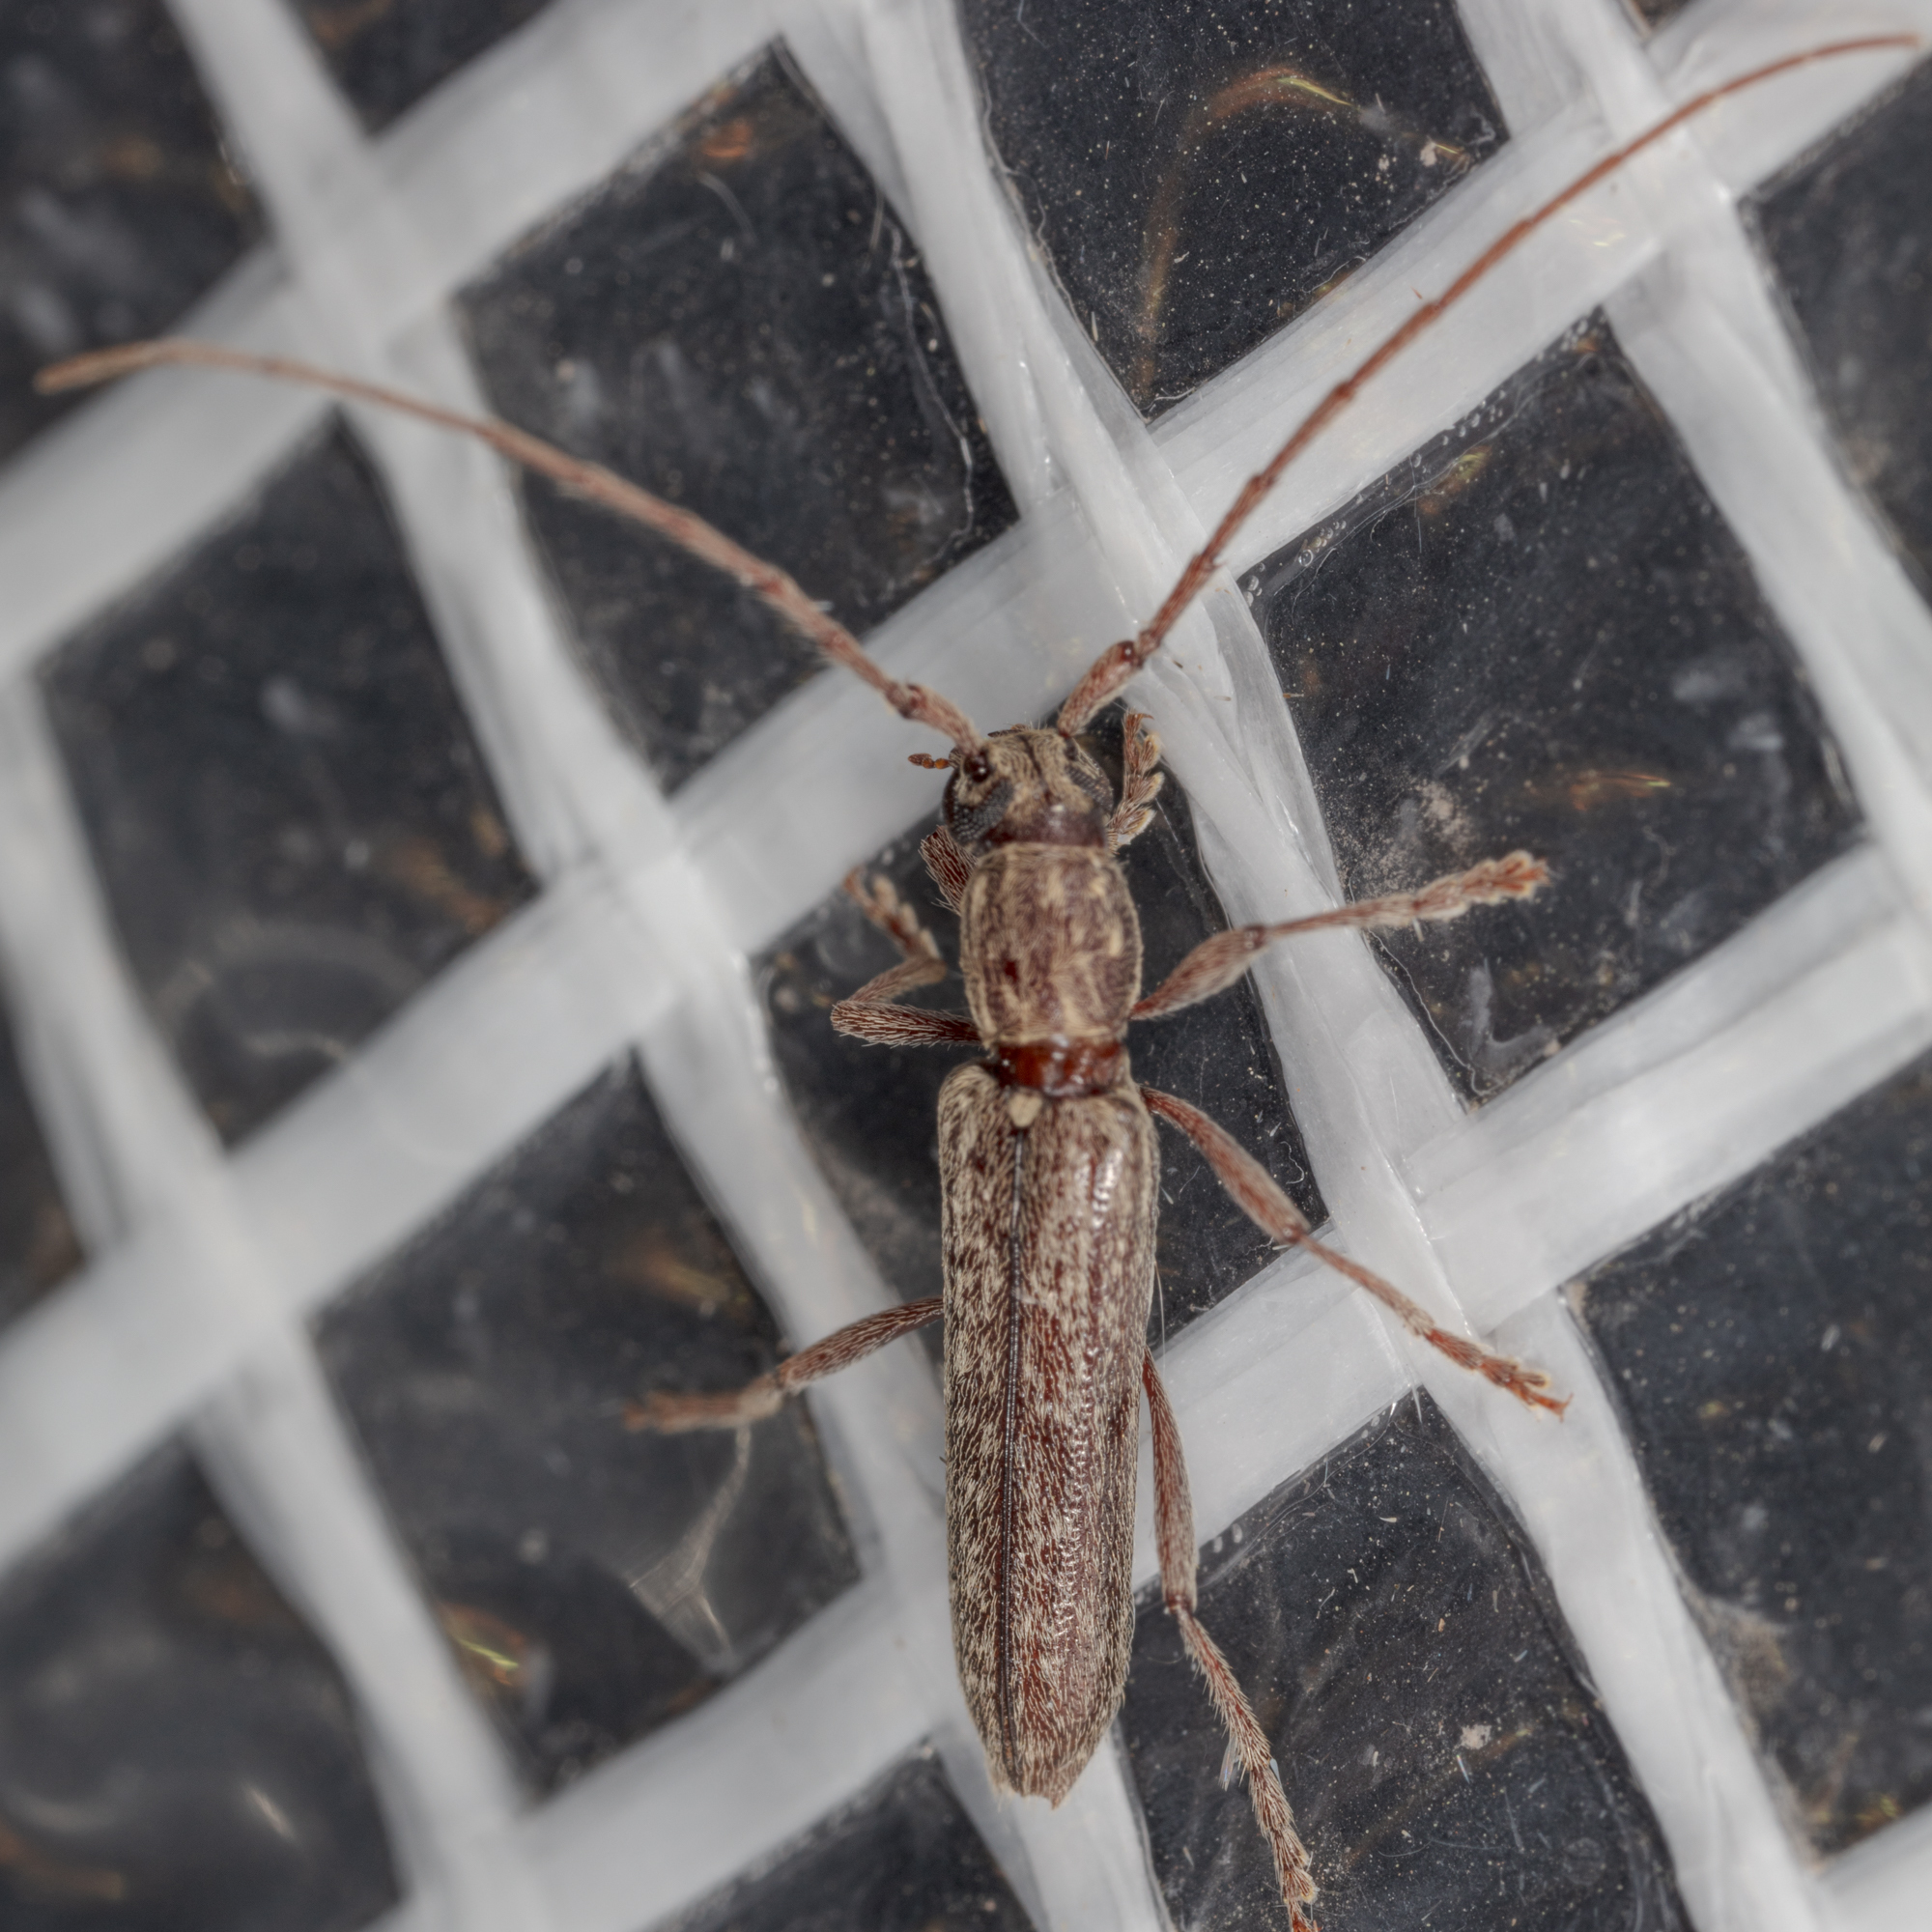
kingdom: Animalia
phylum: Arthropoda
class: Insecta
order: Coleoptera
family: Cerambycidae
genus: Anelaphus
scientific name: Anelaphus villosus
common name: Twig pruner
